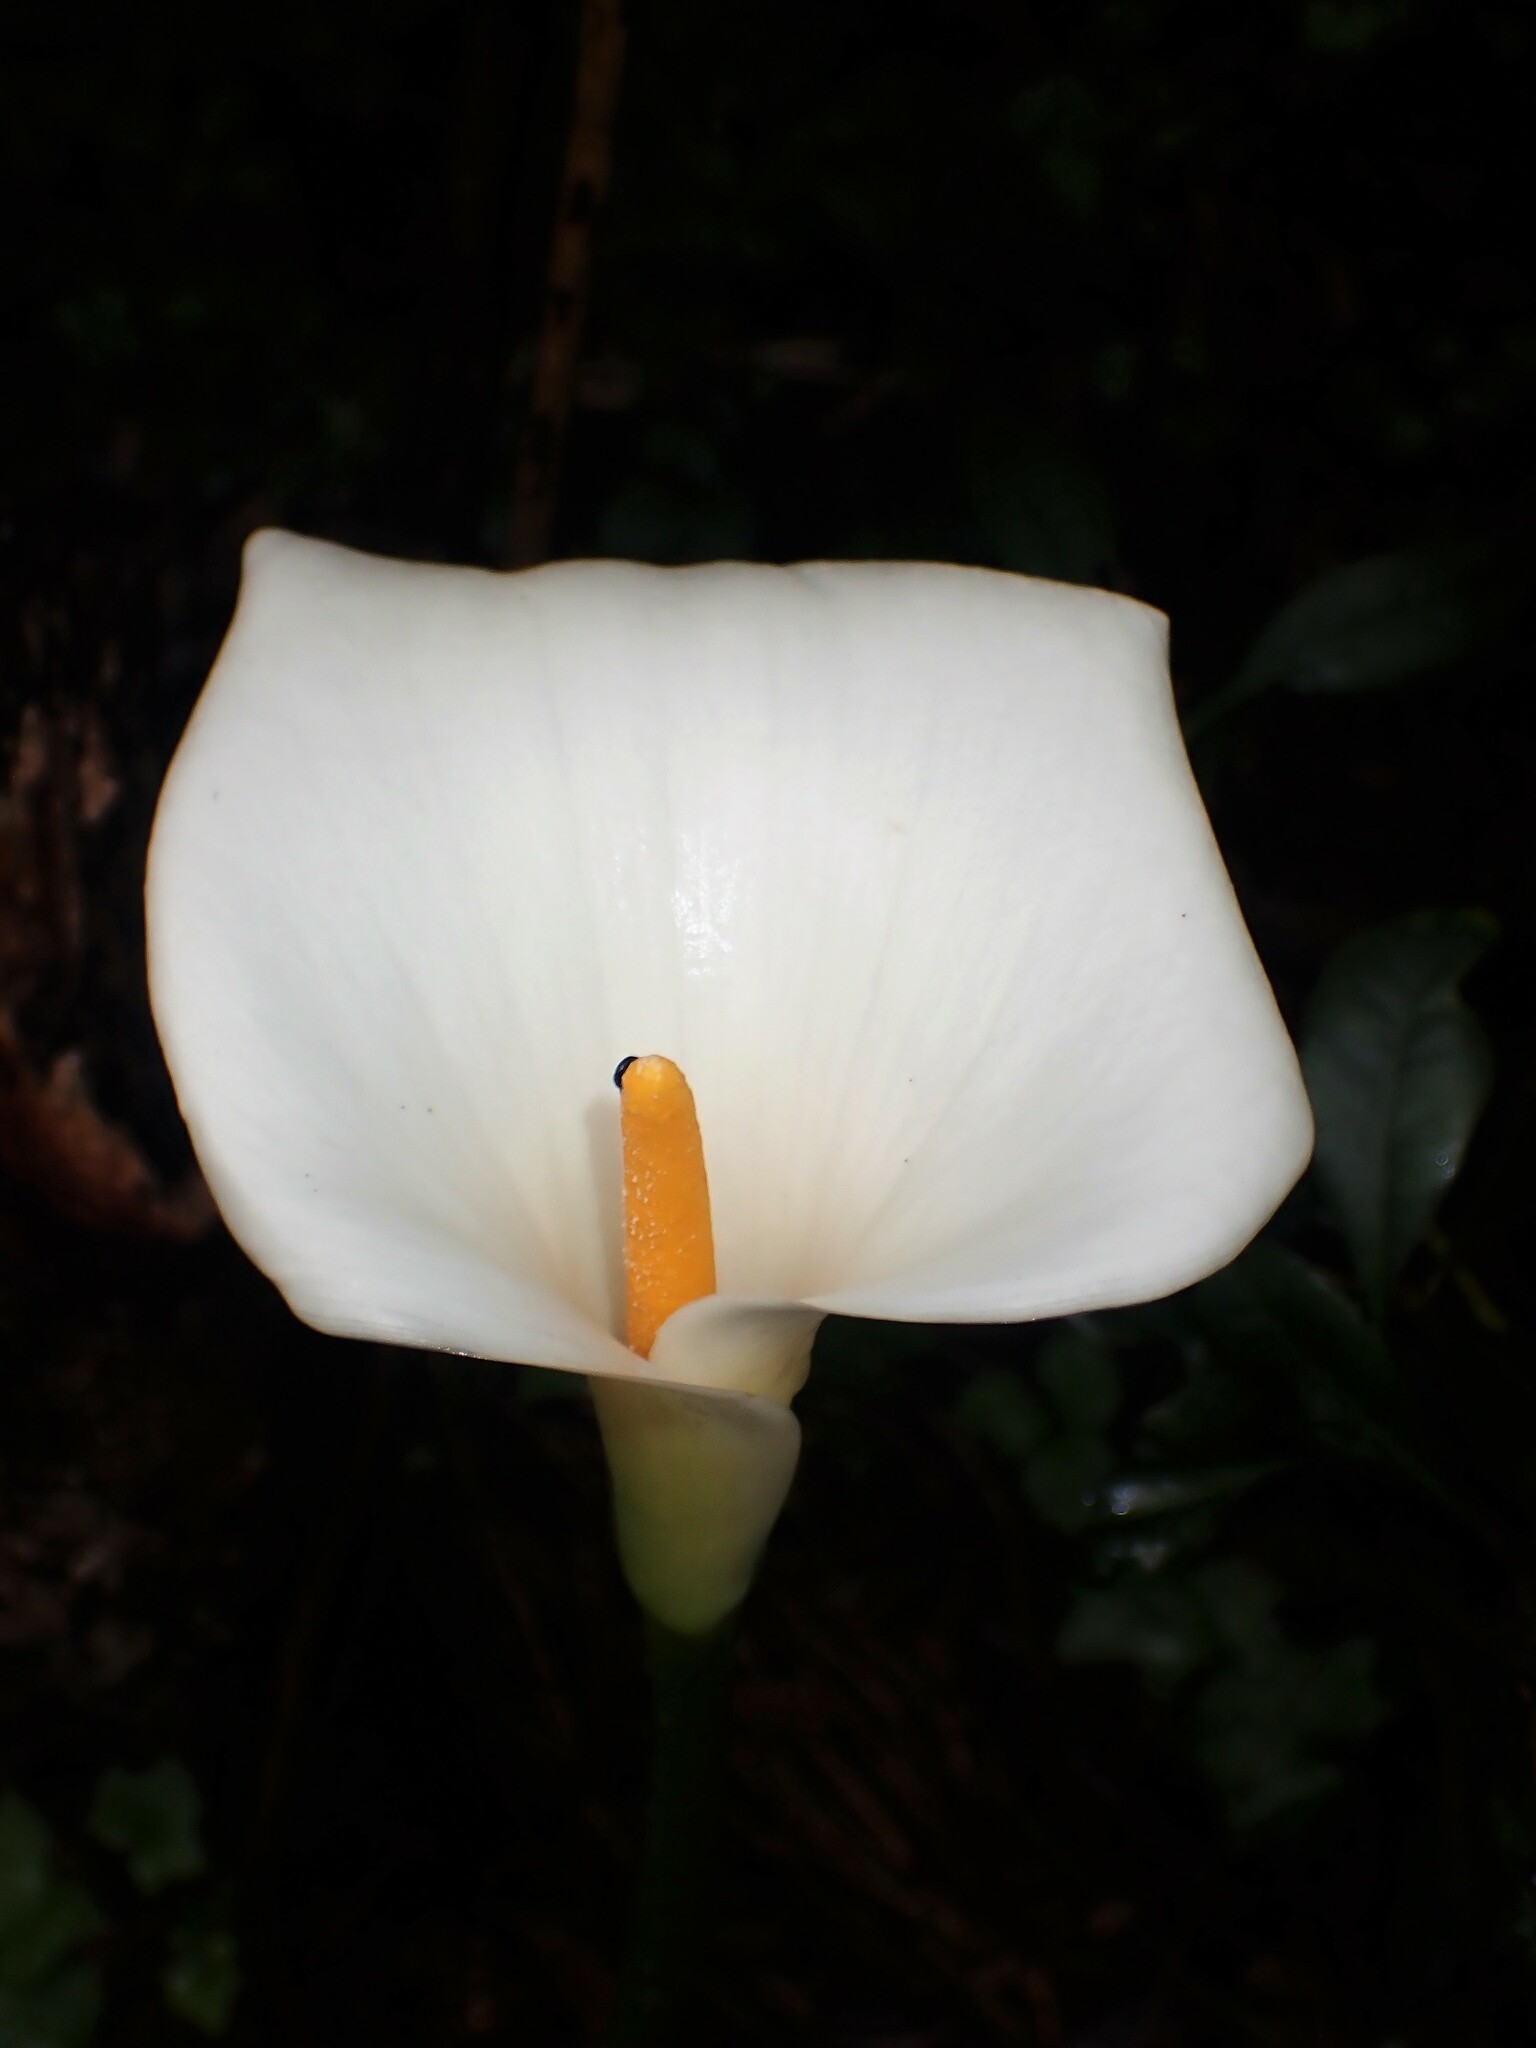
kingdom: Plantae
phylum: Tracheophyta
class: Liliopsida
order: Alismatales
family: Araceae
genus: Zantedeschia
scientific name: Zantedeschia aethiopica
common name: Altar-lily
